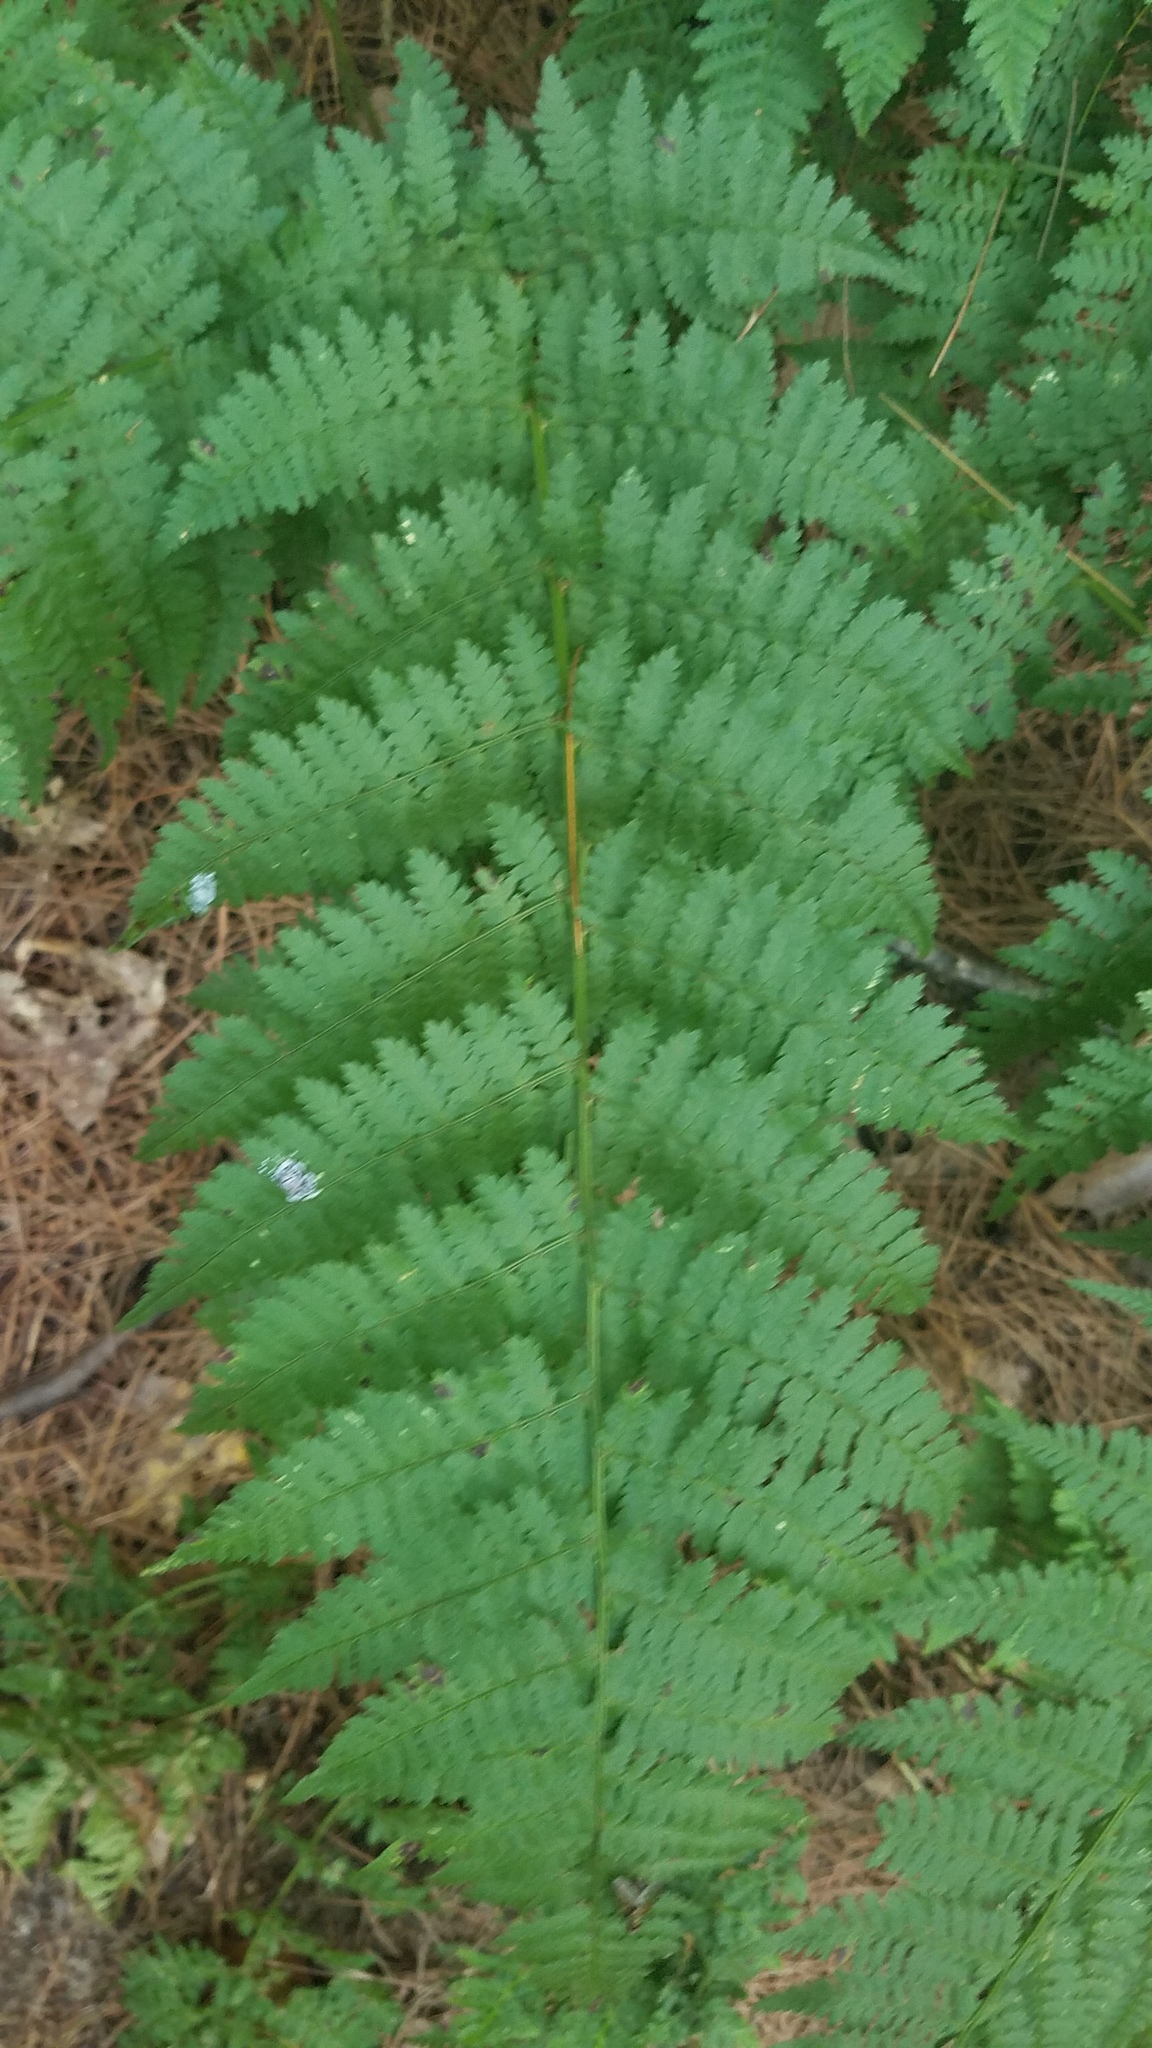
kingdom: Plantae
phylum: Tracheophyta
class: Polypodiopsida
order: Polypodiales
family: Dryopteridaceae
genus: Dryopteris
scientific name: Dryopteris intermedia
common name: Evergreen wood fern
